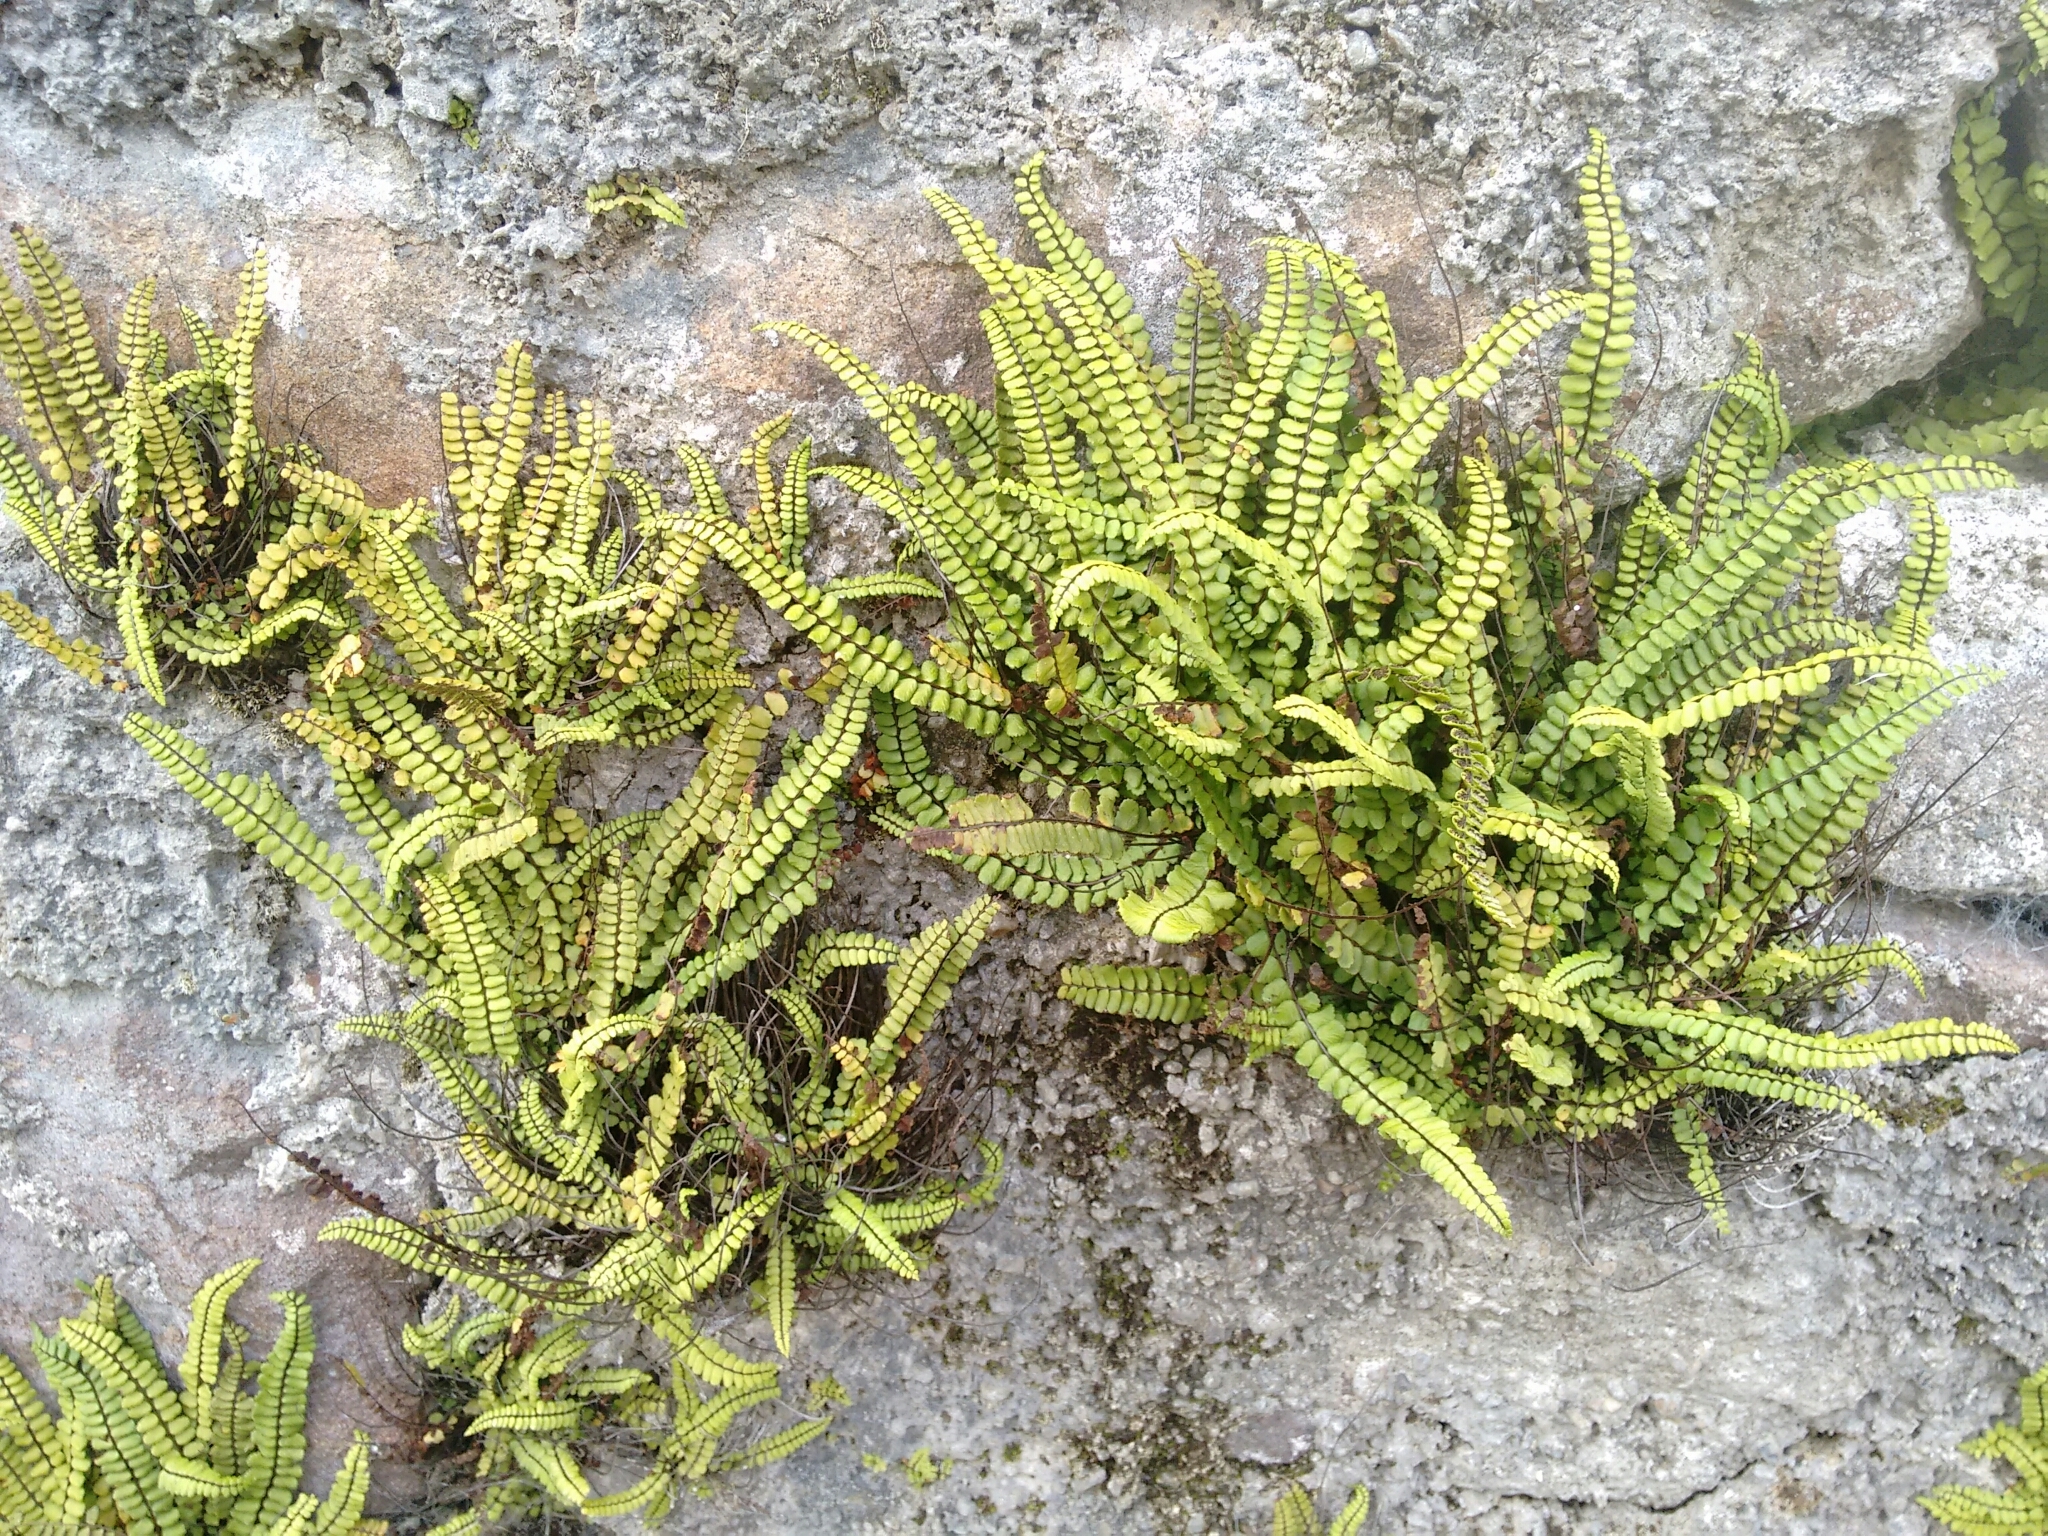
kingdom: Plantae
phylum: Tracheophyta
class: Polypodiopsida
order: Polypodiales
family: Aspleniaceae
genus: Asplenium
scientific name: Asplenium trichomanes
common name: Maidenhair spleenwort
